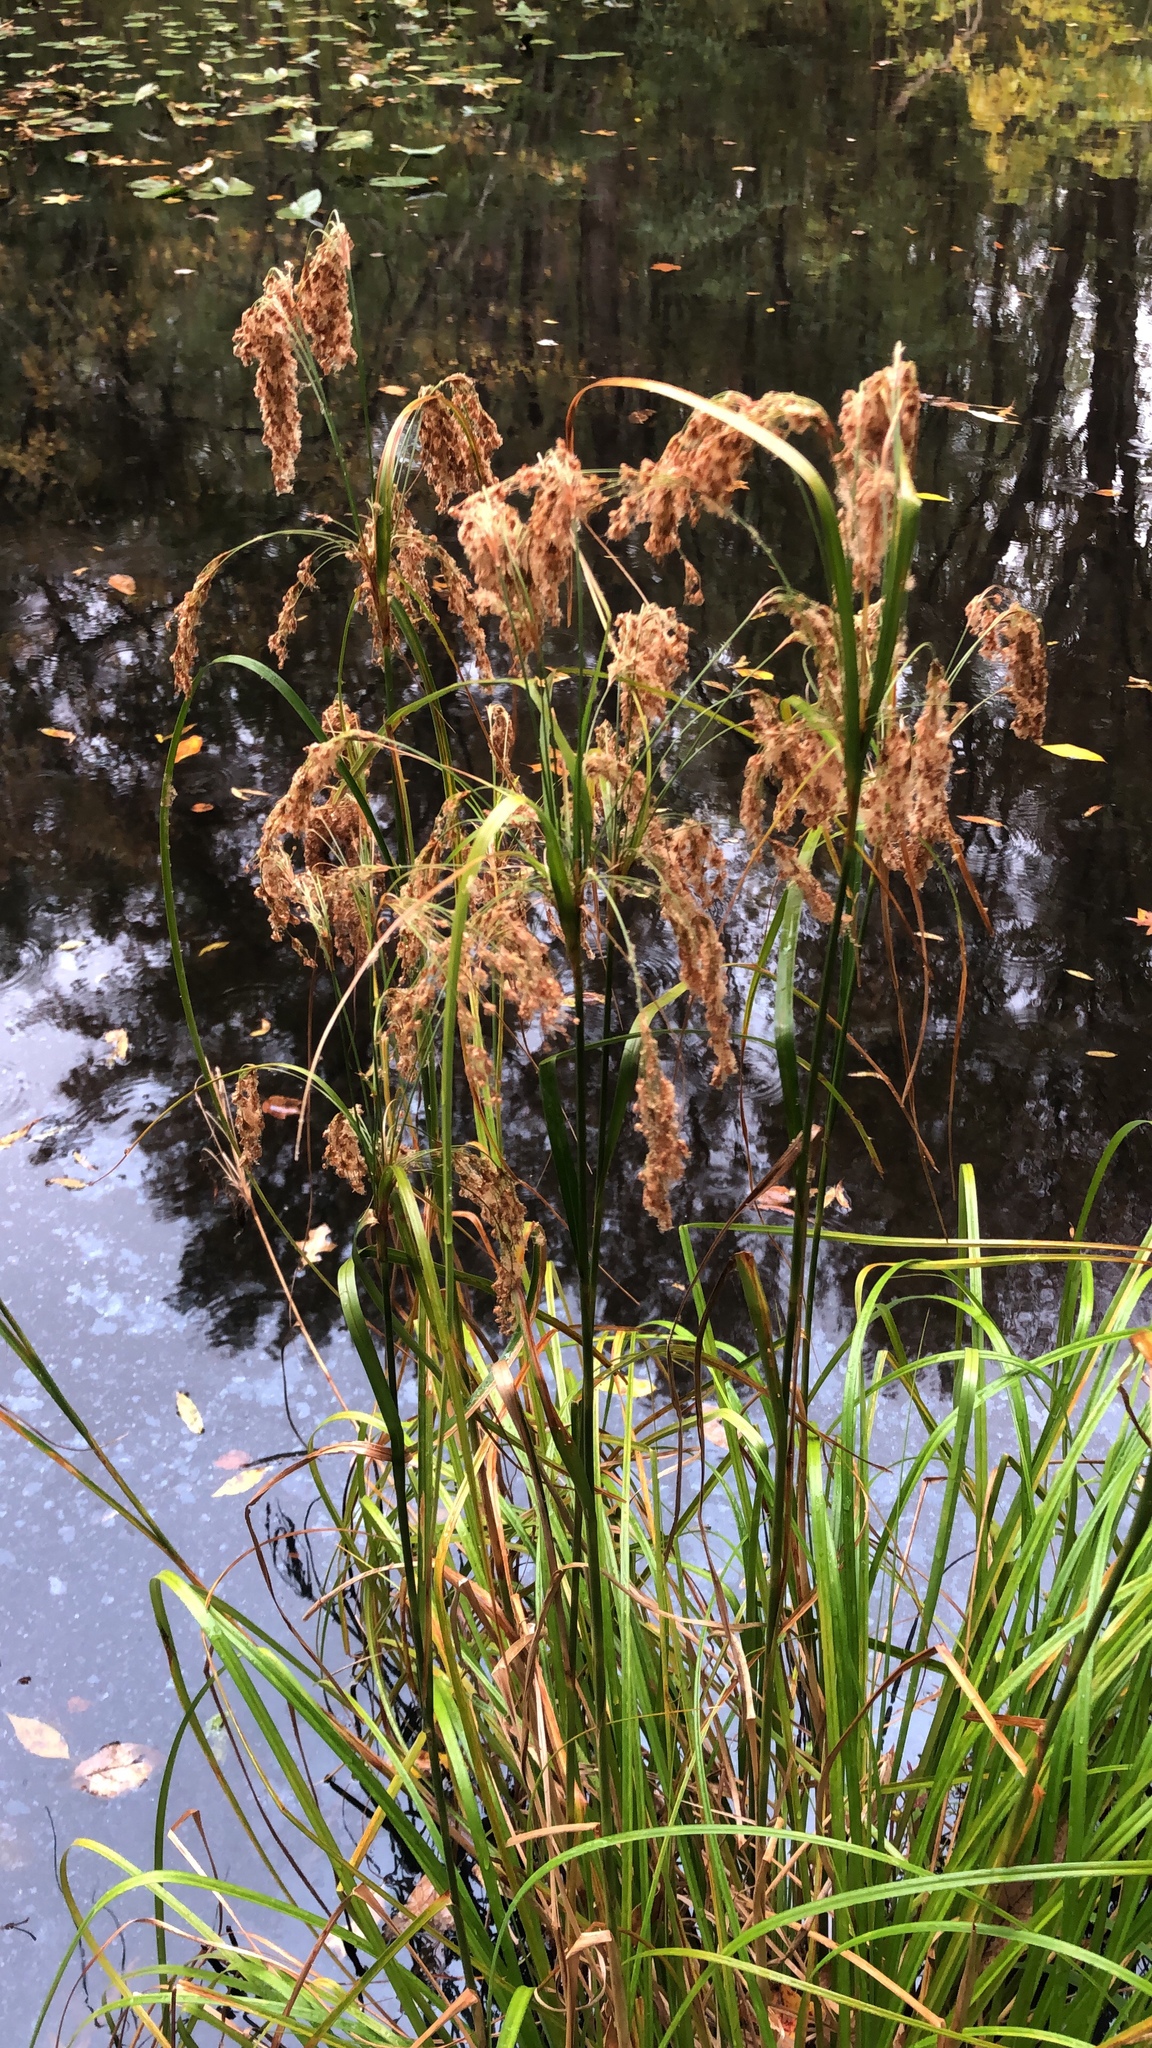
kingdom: Plantae
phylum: Tracheophyta
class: Liliopsida
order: Poales
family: Cyperaceae
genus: Scirpus
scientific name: Scirpus cyperinus
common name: Black-sheathed bulrush
